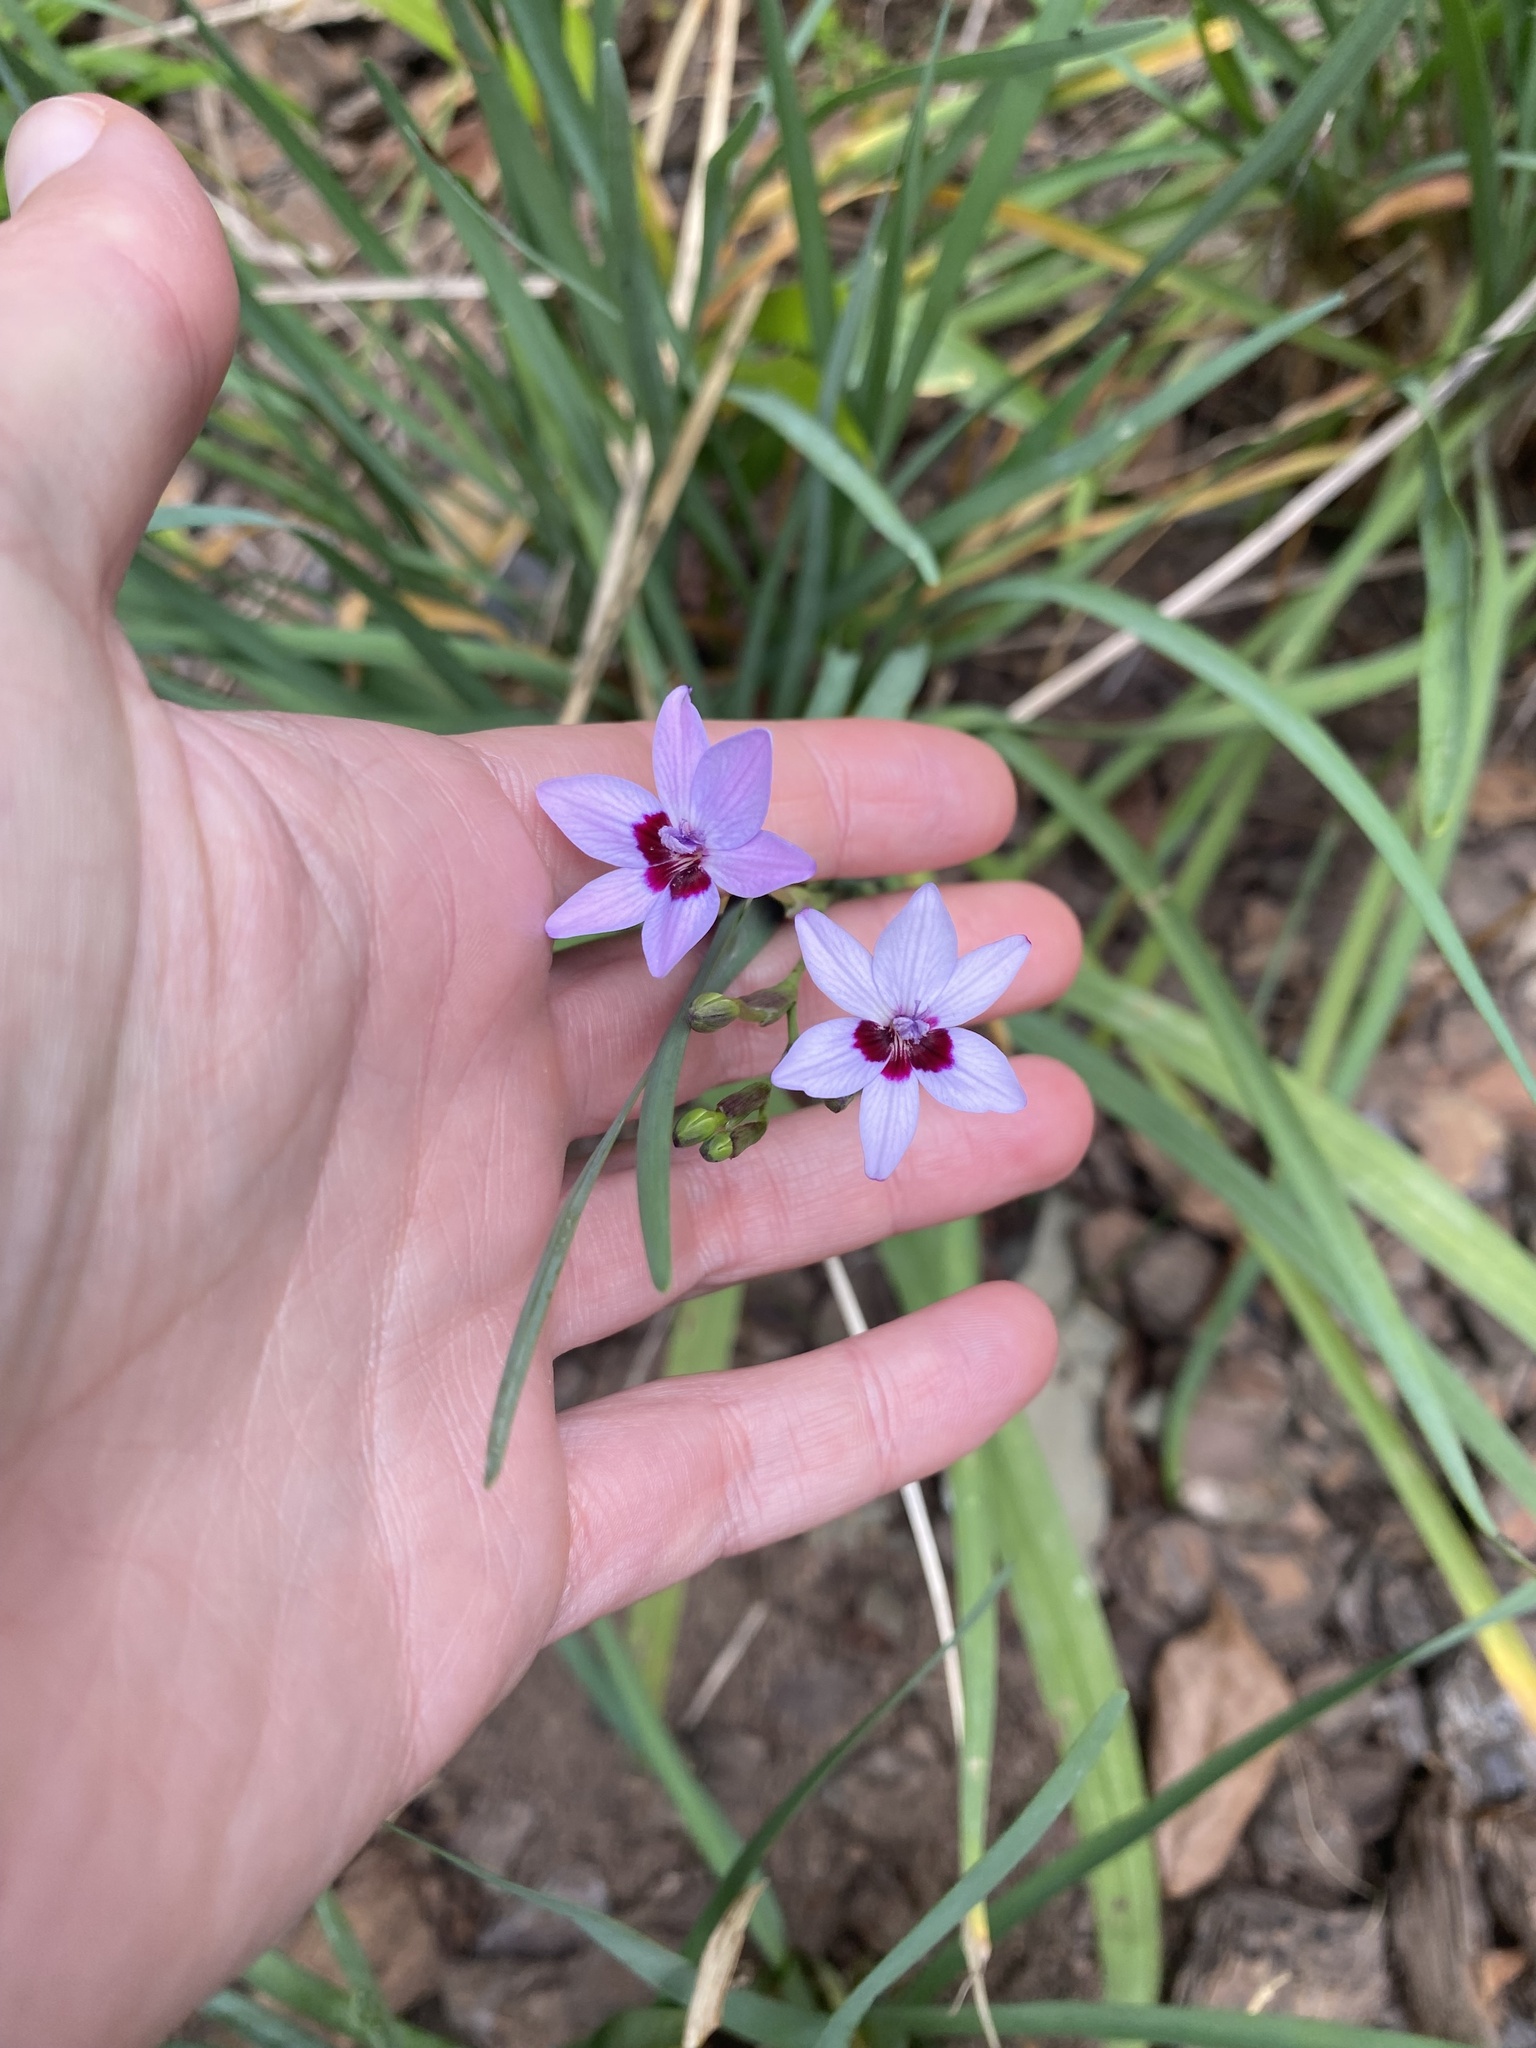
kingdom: Plantae
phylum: Tracheophyta
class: Liliopsida
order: Asparagales
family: Iridaceae
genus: Freesia
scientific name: Freesia laxa
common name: False freesia
